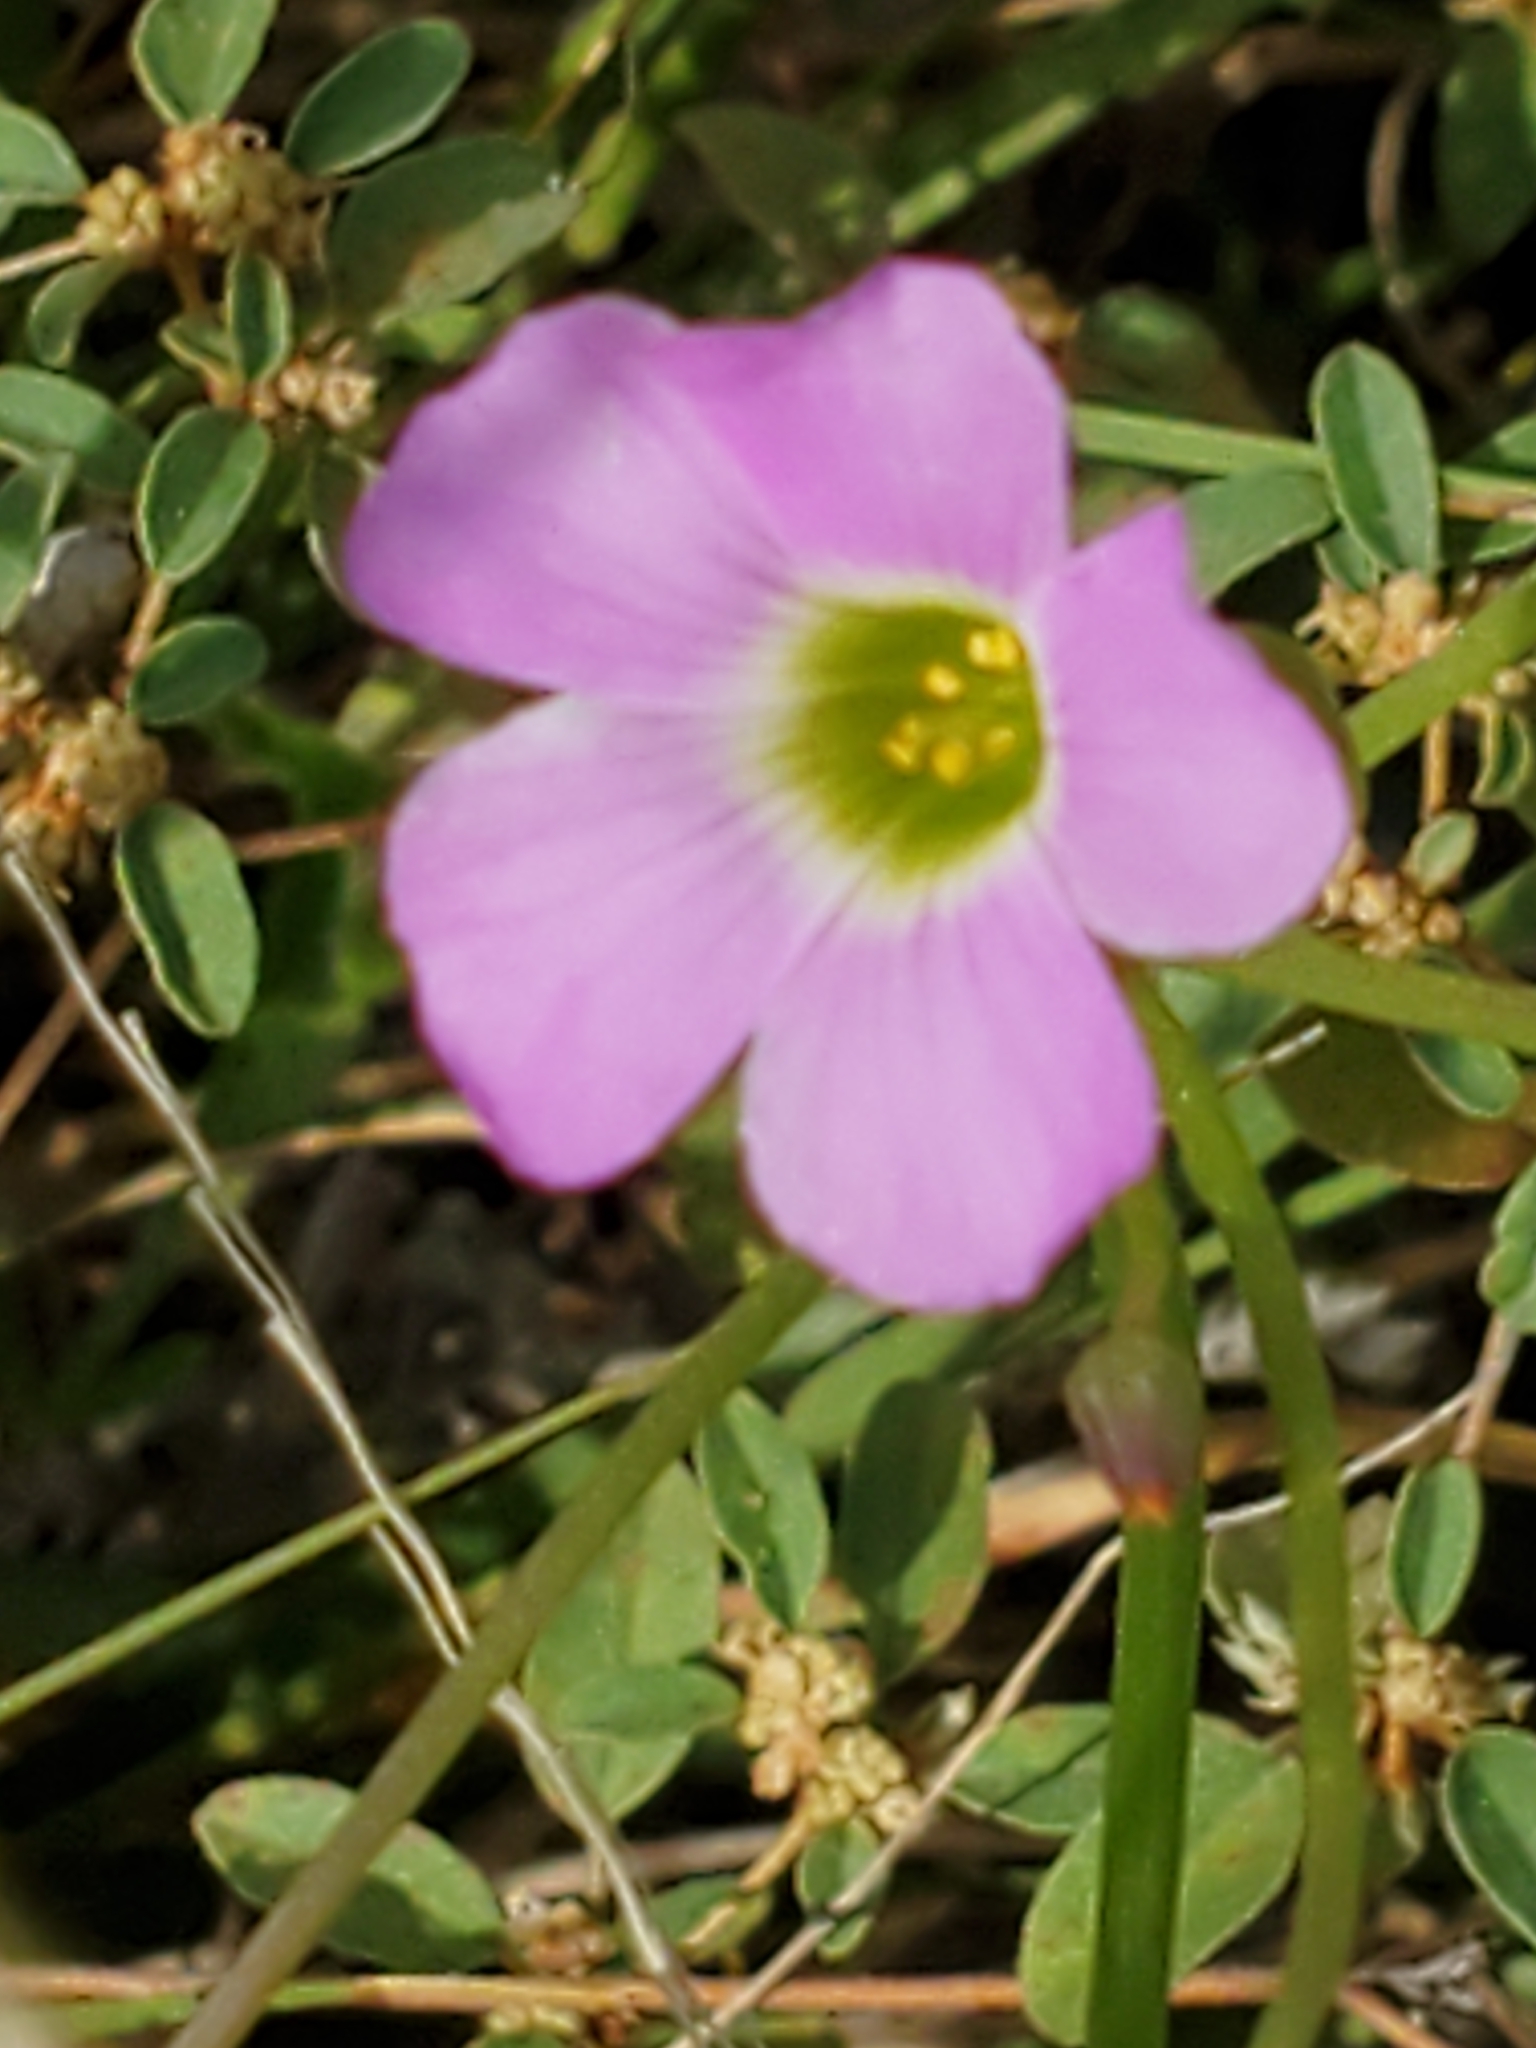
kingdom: Plantae
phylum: Tracheophyta
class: Magnoliopsida
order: Oxalidales
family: Oxalidaceae
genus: Oxalis
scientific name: Oxalis drummondii
